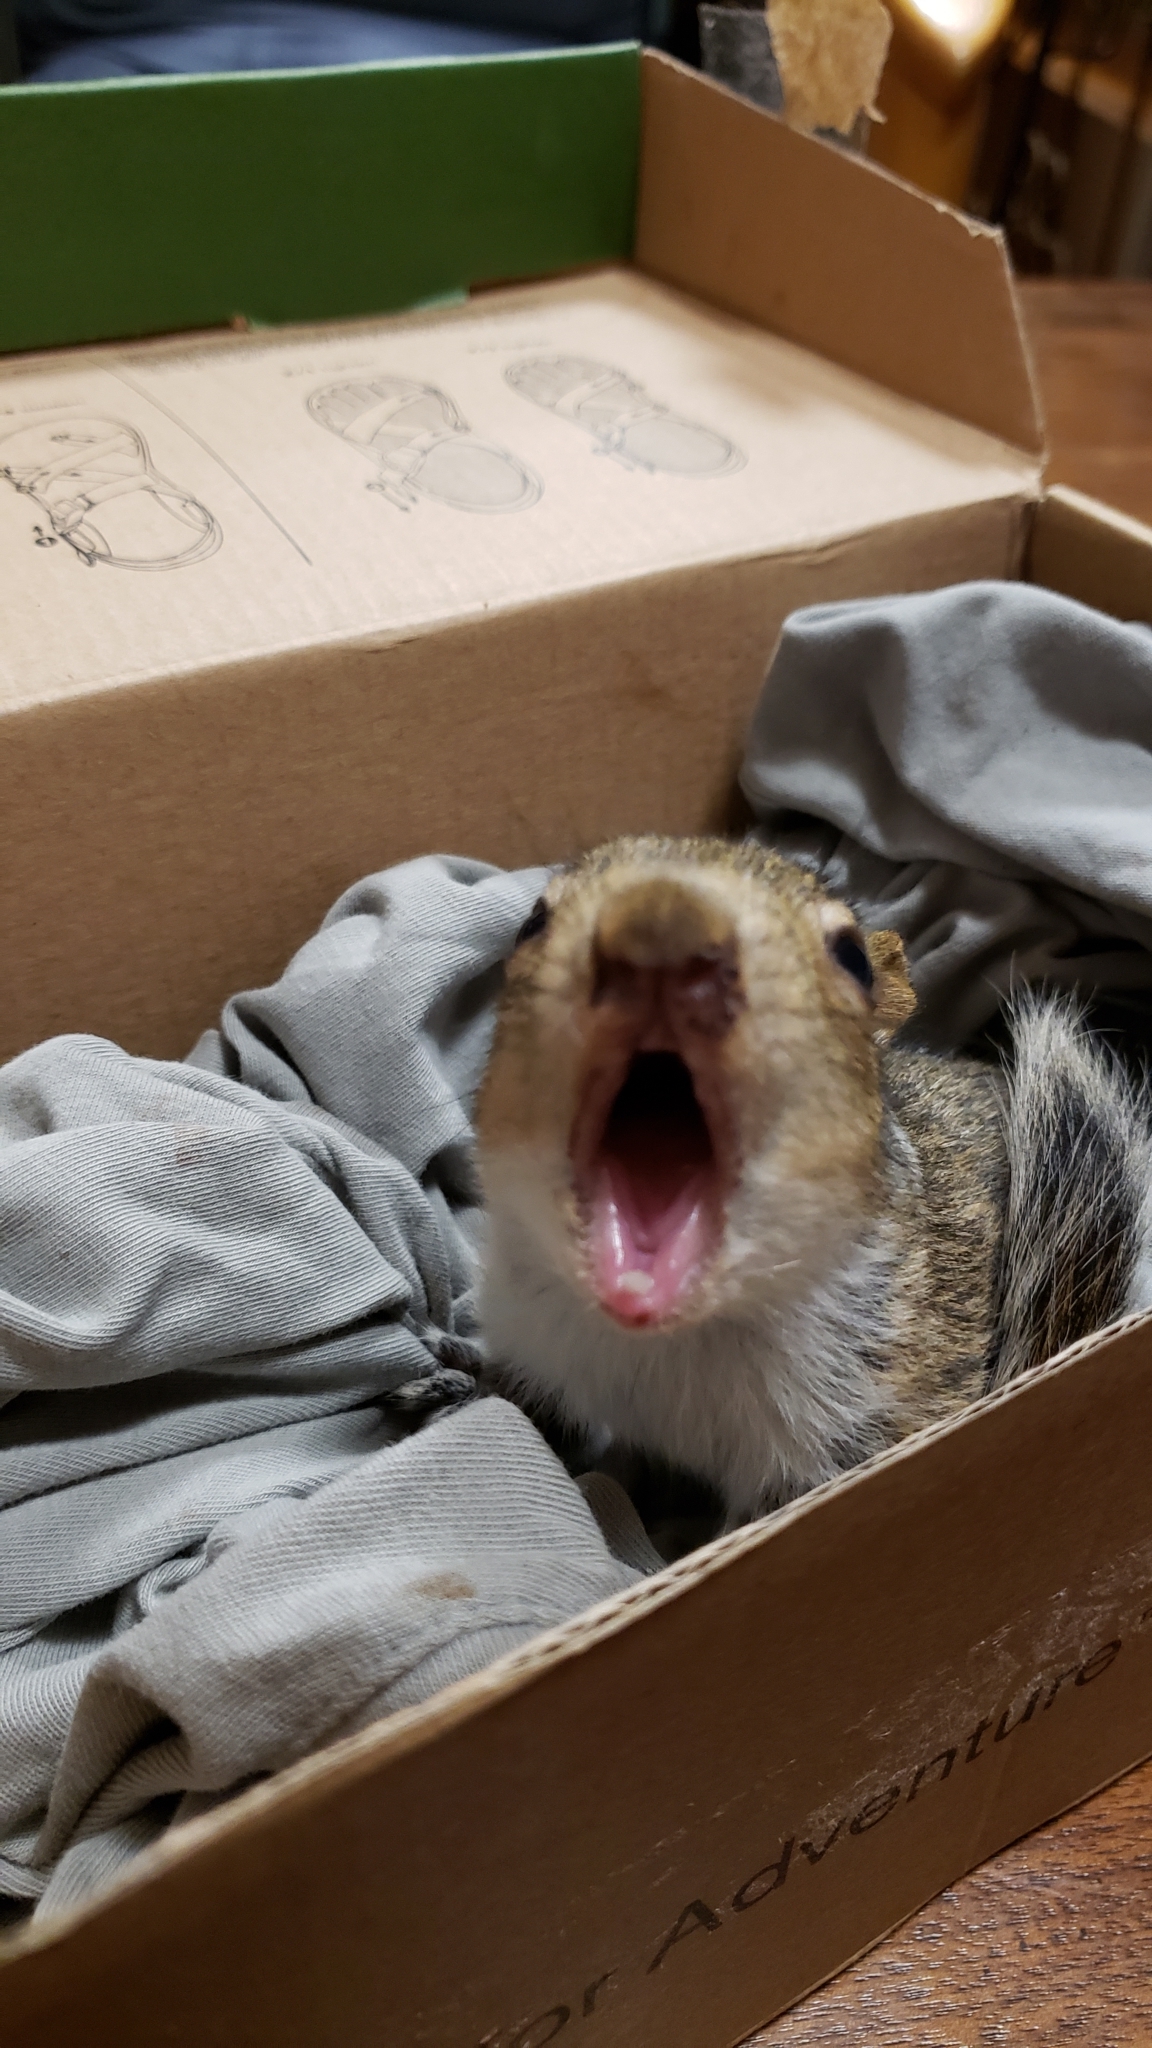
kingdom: Animalia
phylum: Chordata
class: Mammalia
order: Rodentia
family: Sciuridae
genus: Sciurus
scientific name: Sciurus carolinensis
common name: Eastern gray squirrel
